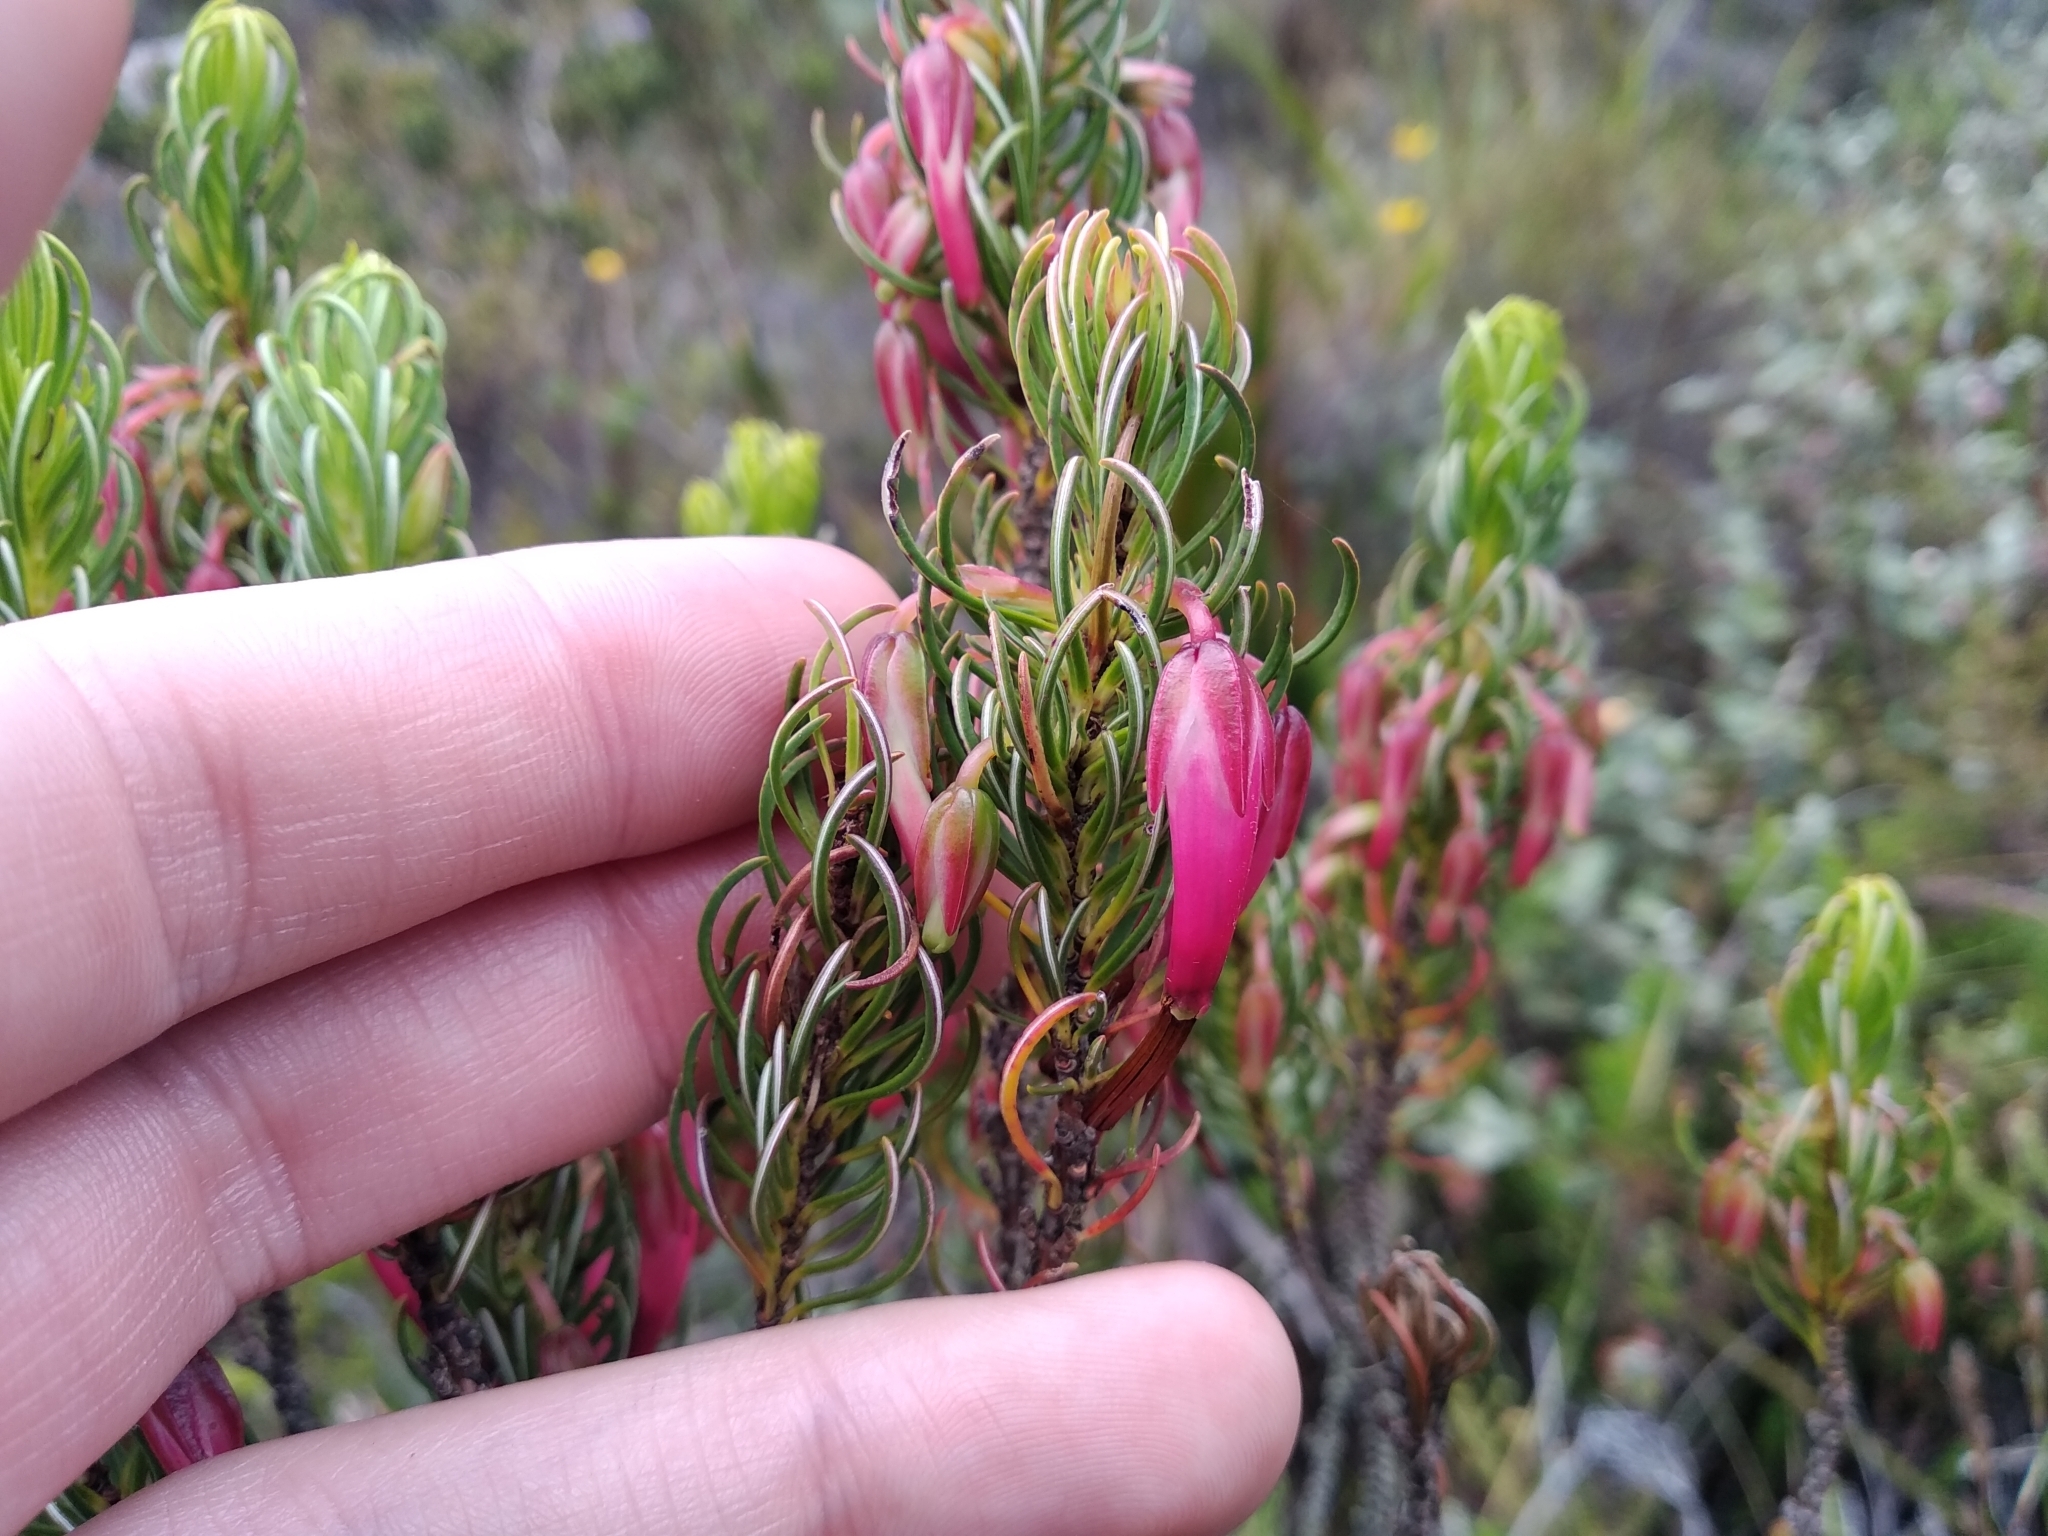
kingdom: Plantae
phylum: Tracheophyta
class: Magnoliopsida
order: Ericales
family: Ericaceae
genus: Erica
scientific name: Erica plukenetii
